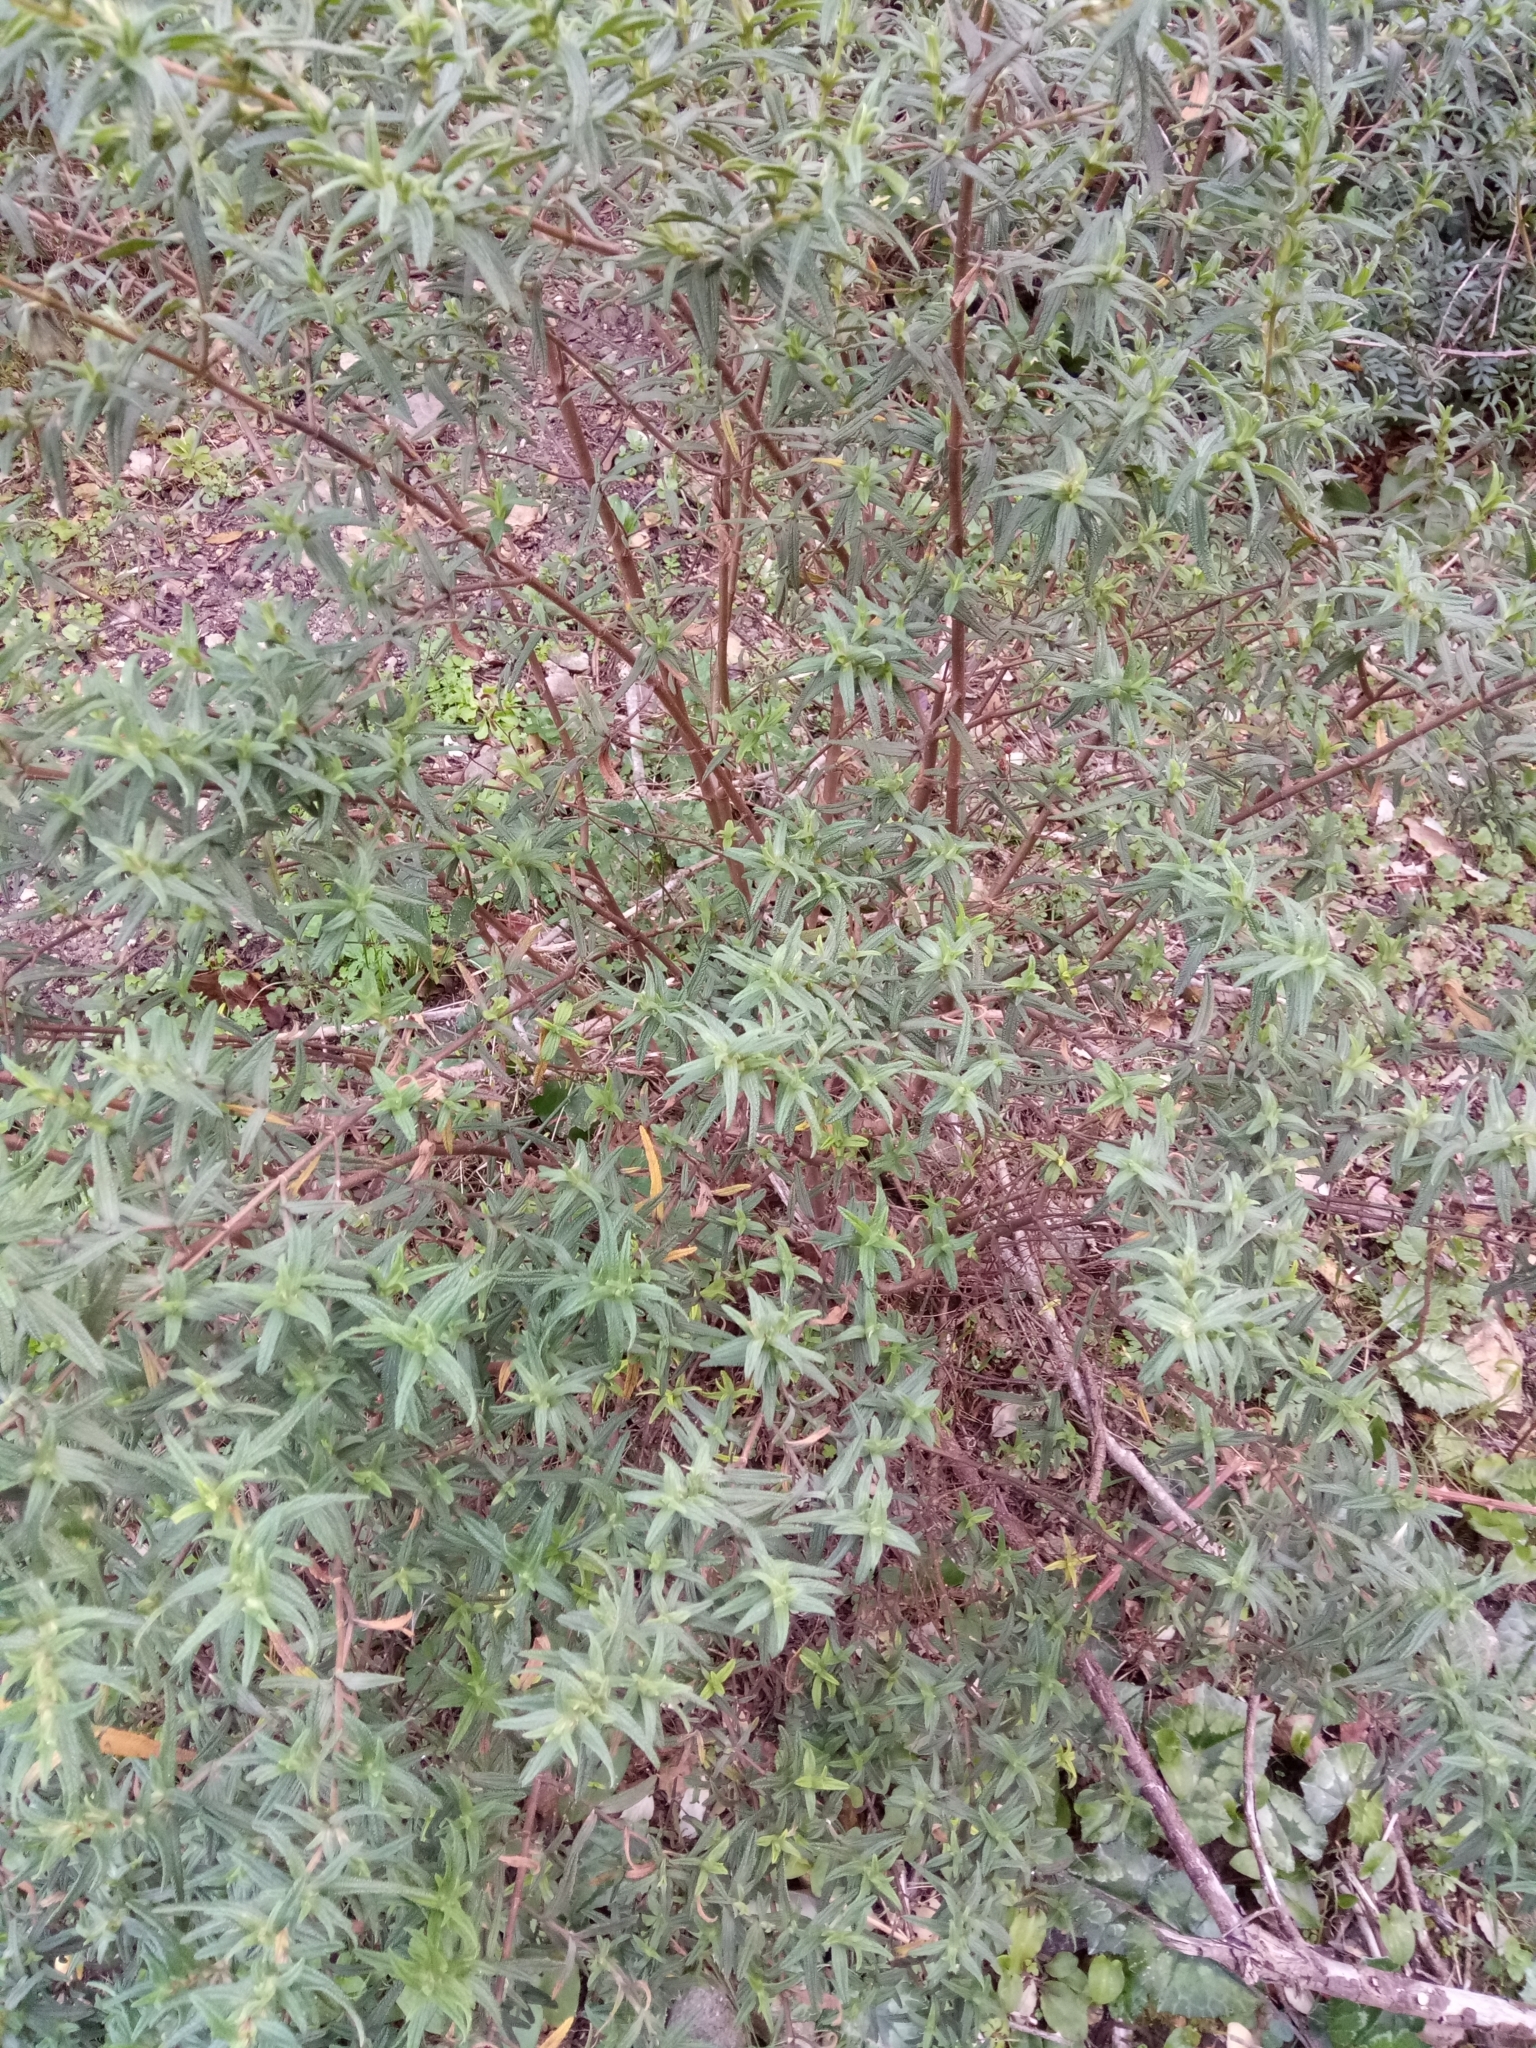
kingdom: Plantae
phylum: Tracheophyta
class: Magnoliopsida
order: Malvales
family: Cistaceae
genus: Cistus
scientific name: Cistus monspeliensis
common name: Montpelier cistus
